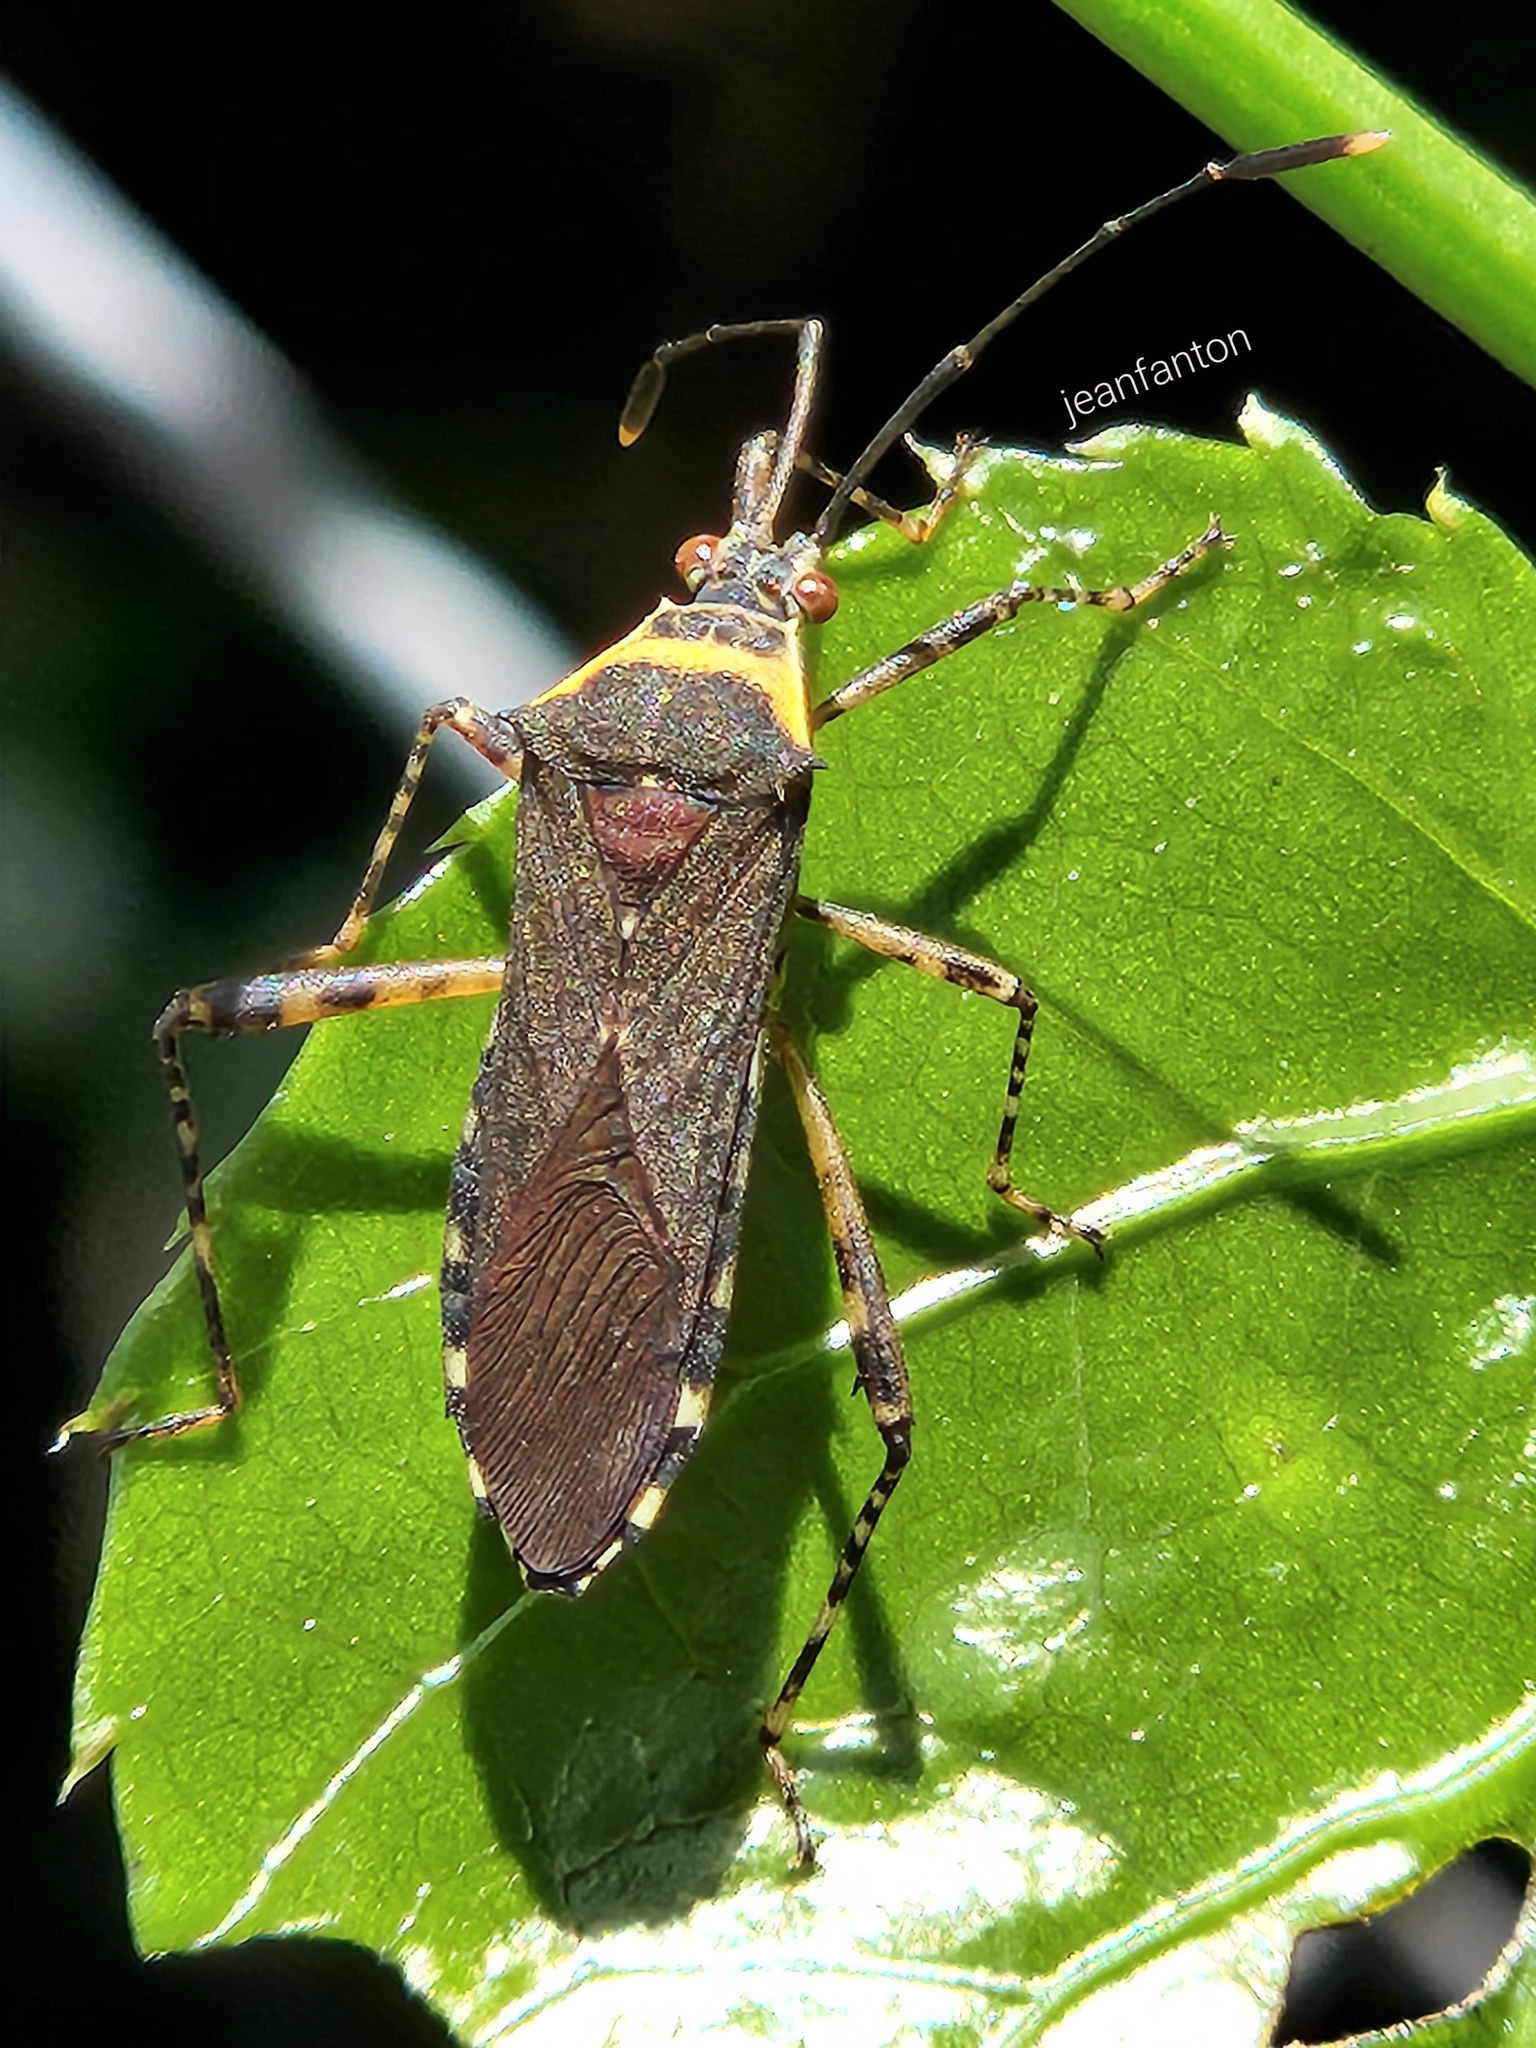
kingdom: Animalia
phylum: Arthropoda
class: Insecta
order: Hemiptera
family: Coreidae
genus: Zoreva
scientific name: Zoreva dentipes
